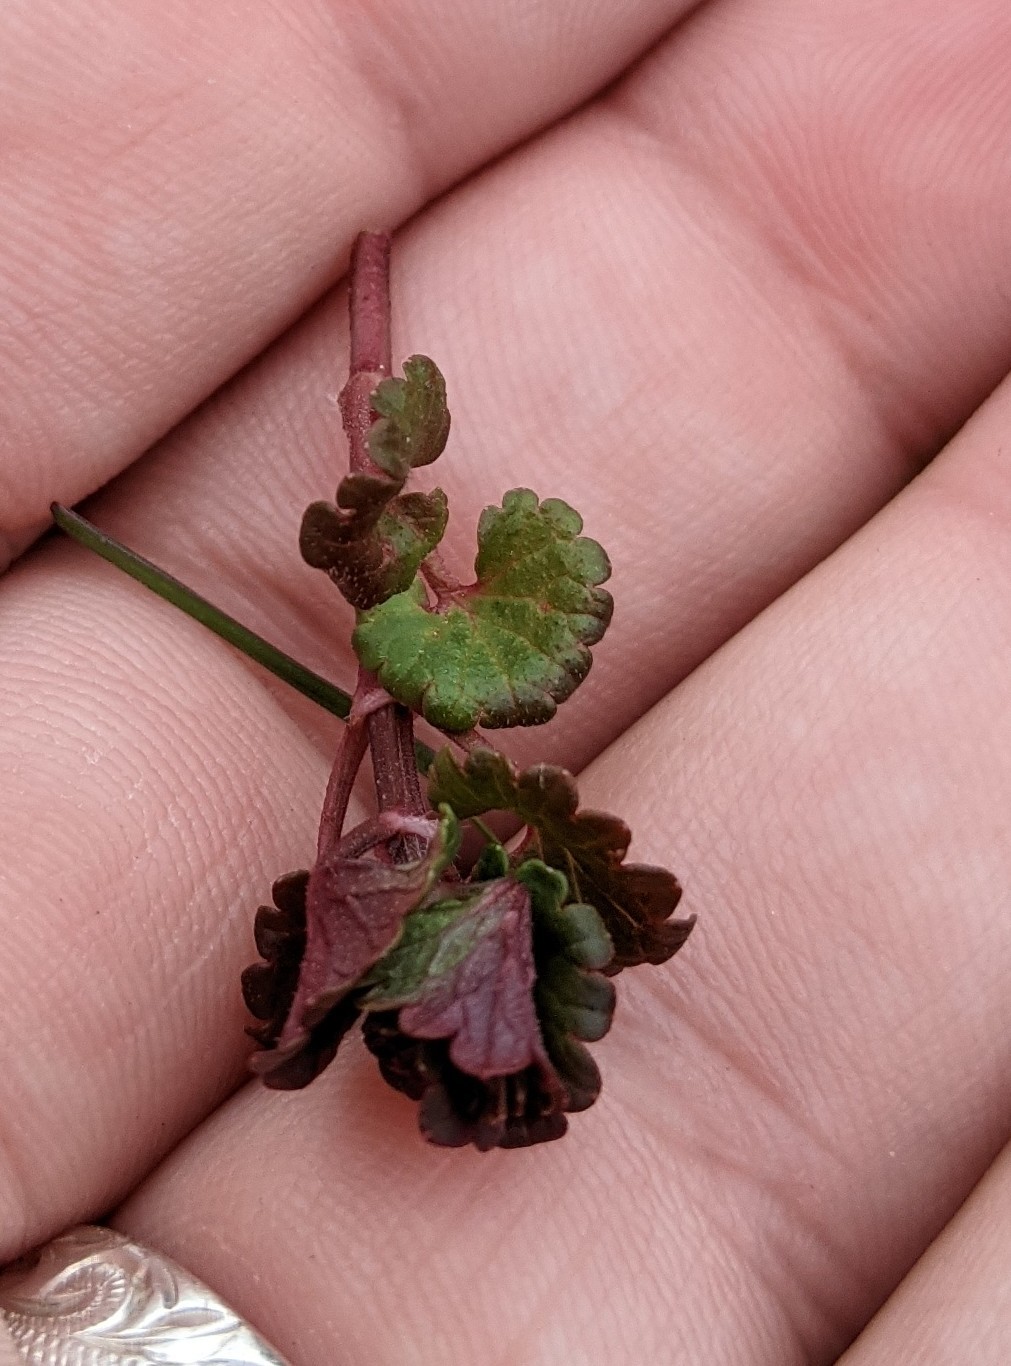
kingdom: Plantae
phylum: Tracheophyta
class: Magnoliopsida
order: Lamiales
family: Lamiaceae
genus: Glechoma
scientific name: Glechoma hederacea
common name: Ground ivy
